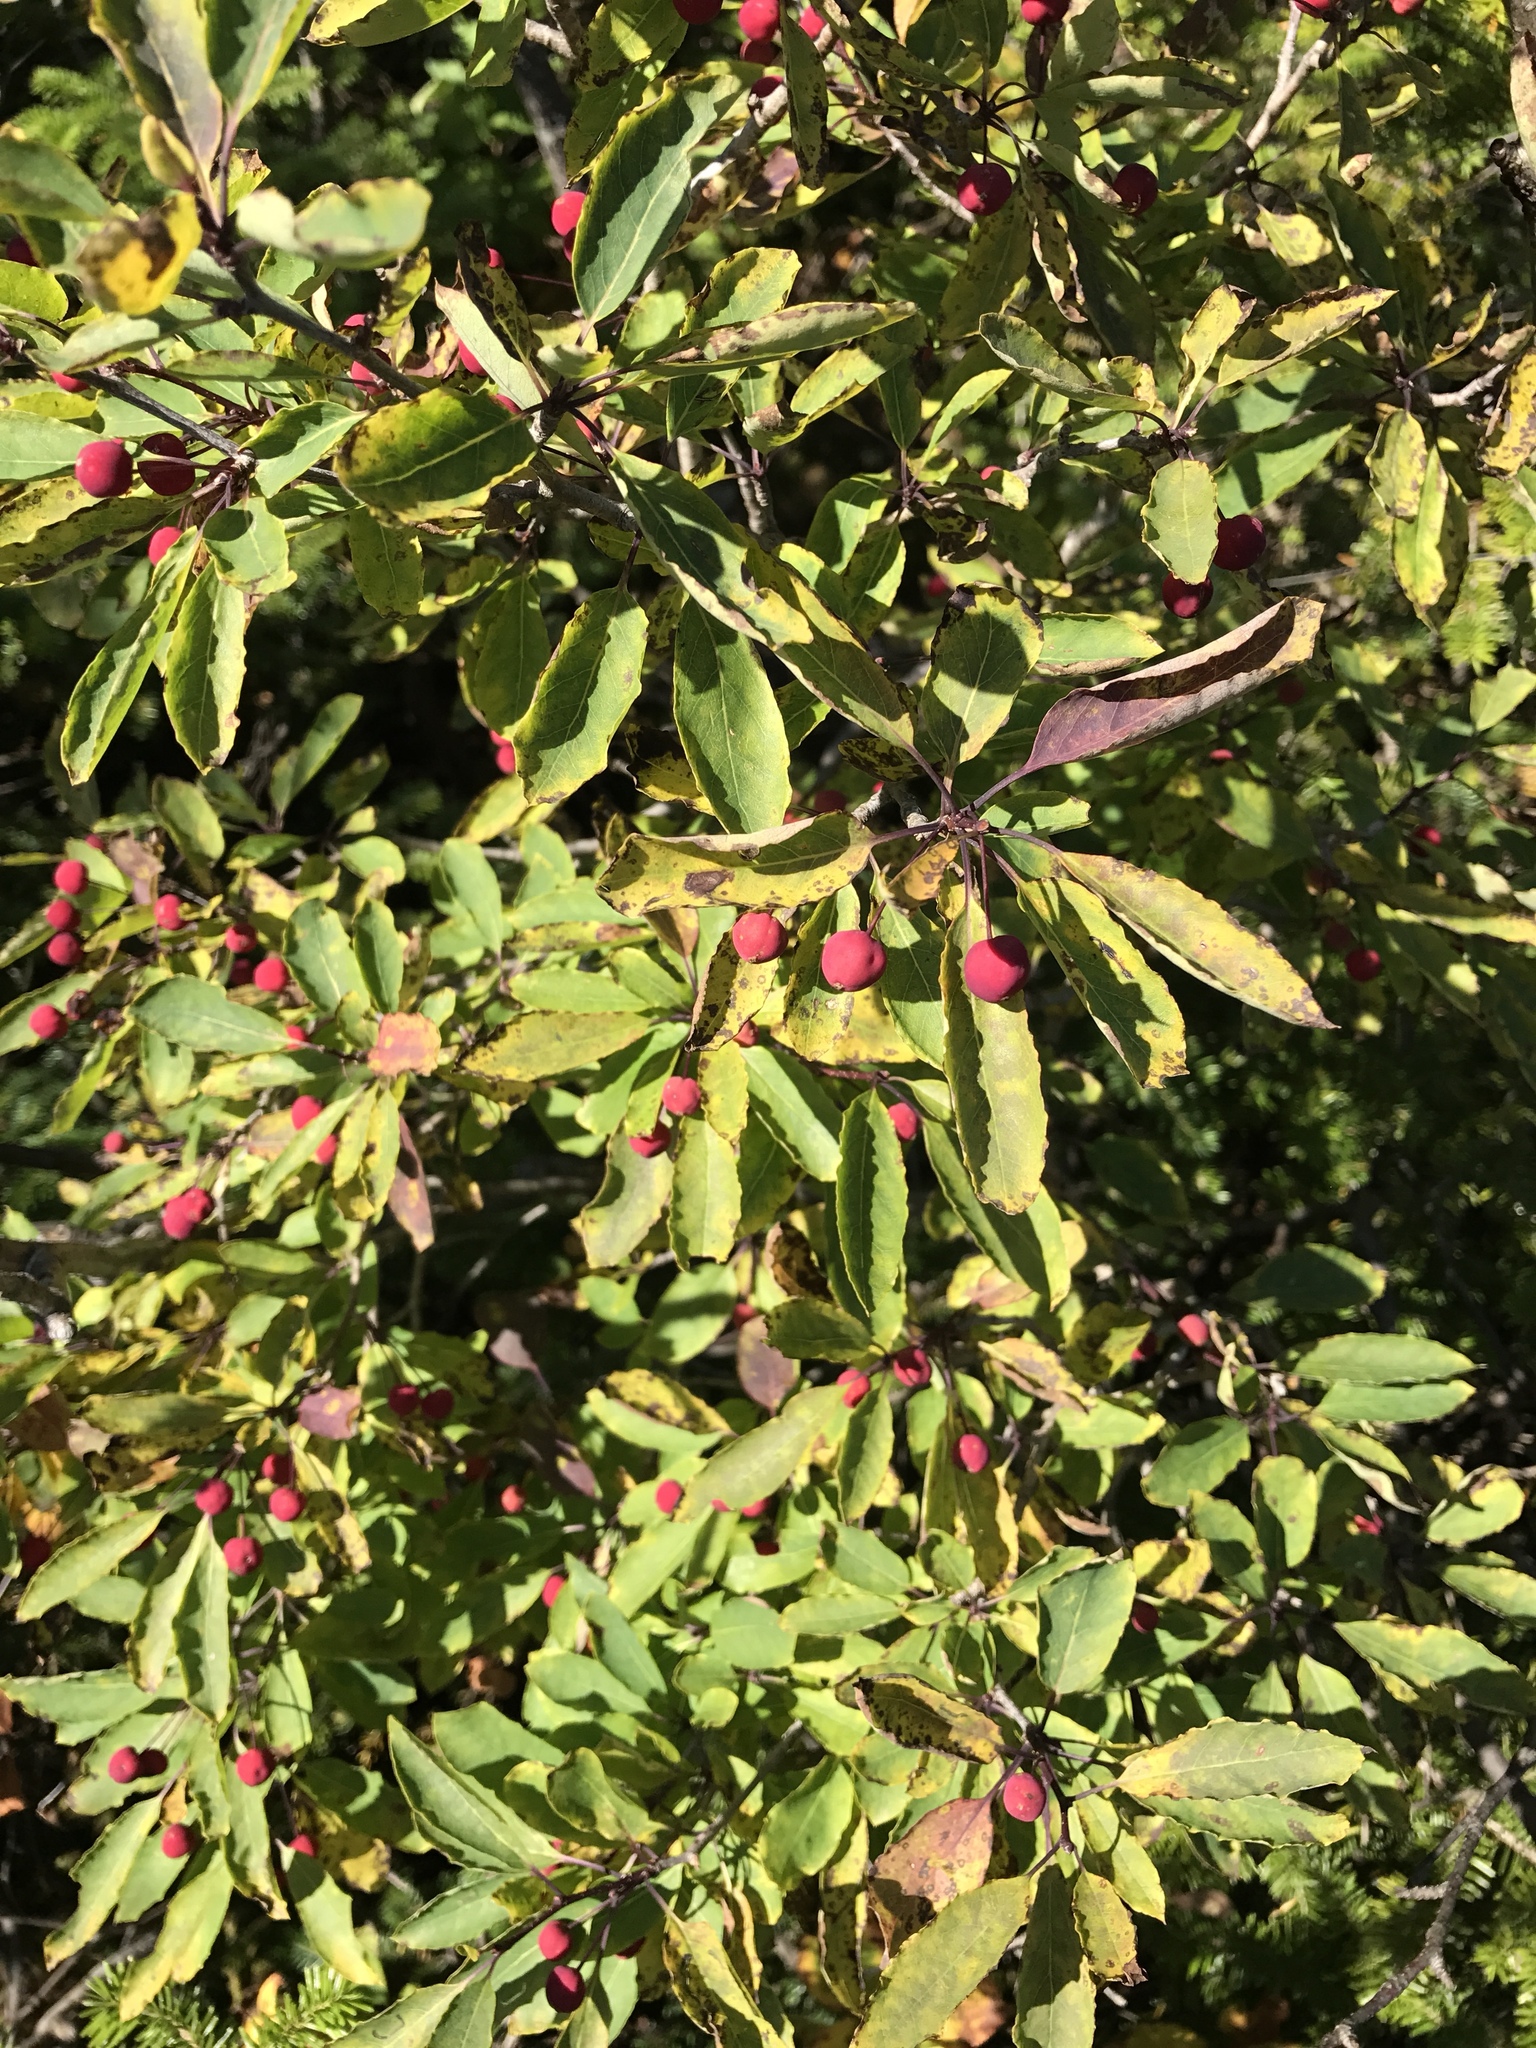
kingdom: Plantae
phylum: Tracheophyta
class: Magnoliopsida
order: Aquifoliales
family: Aquifoliaceae
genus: Ilex
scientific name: Ilex mucronata
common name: Catberry
